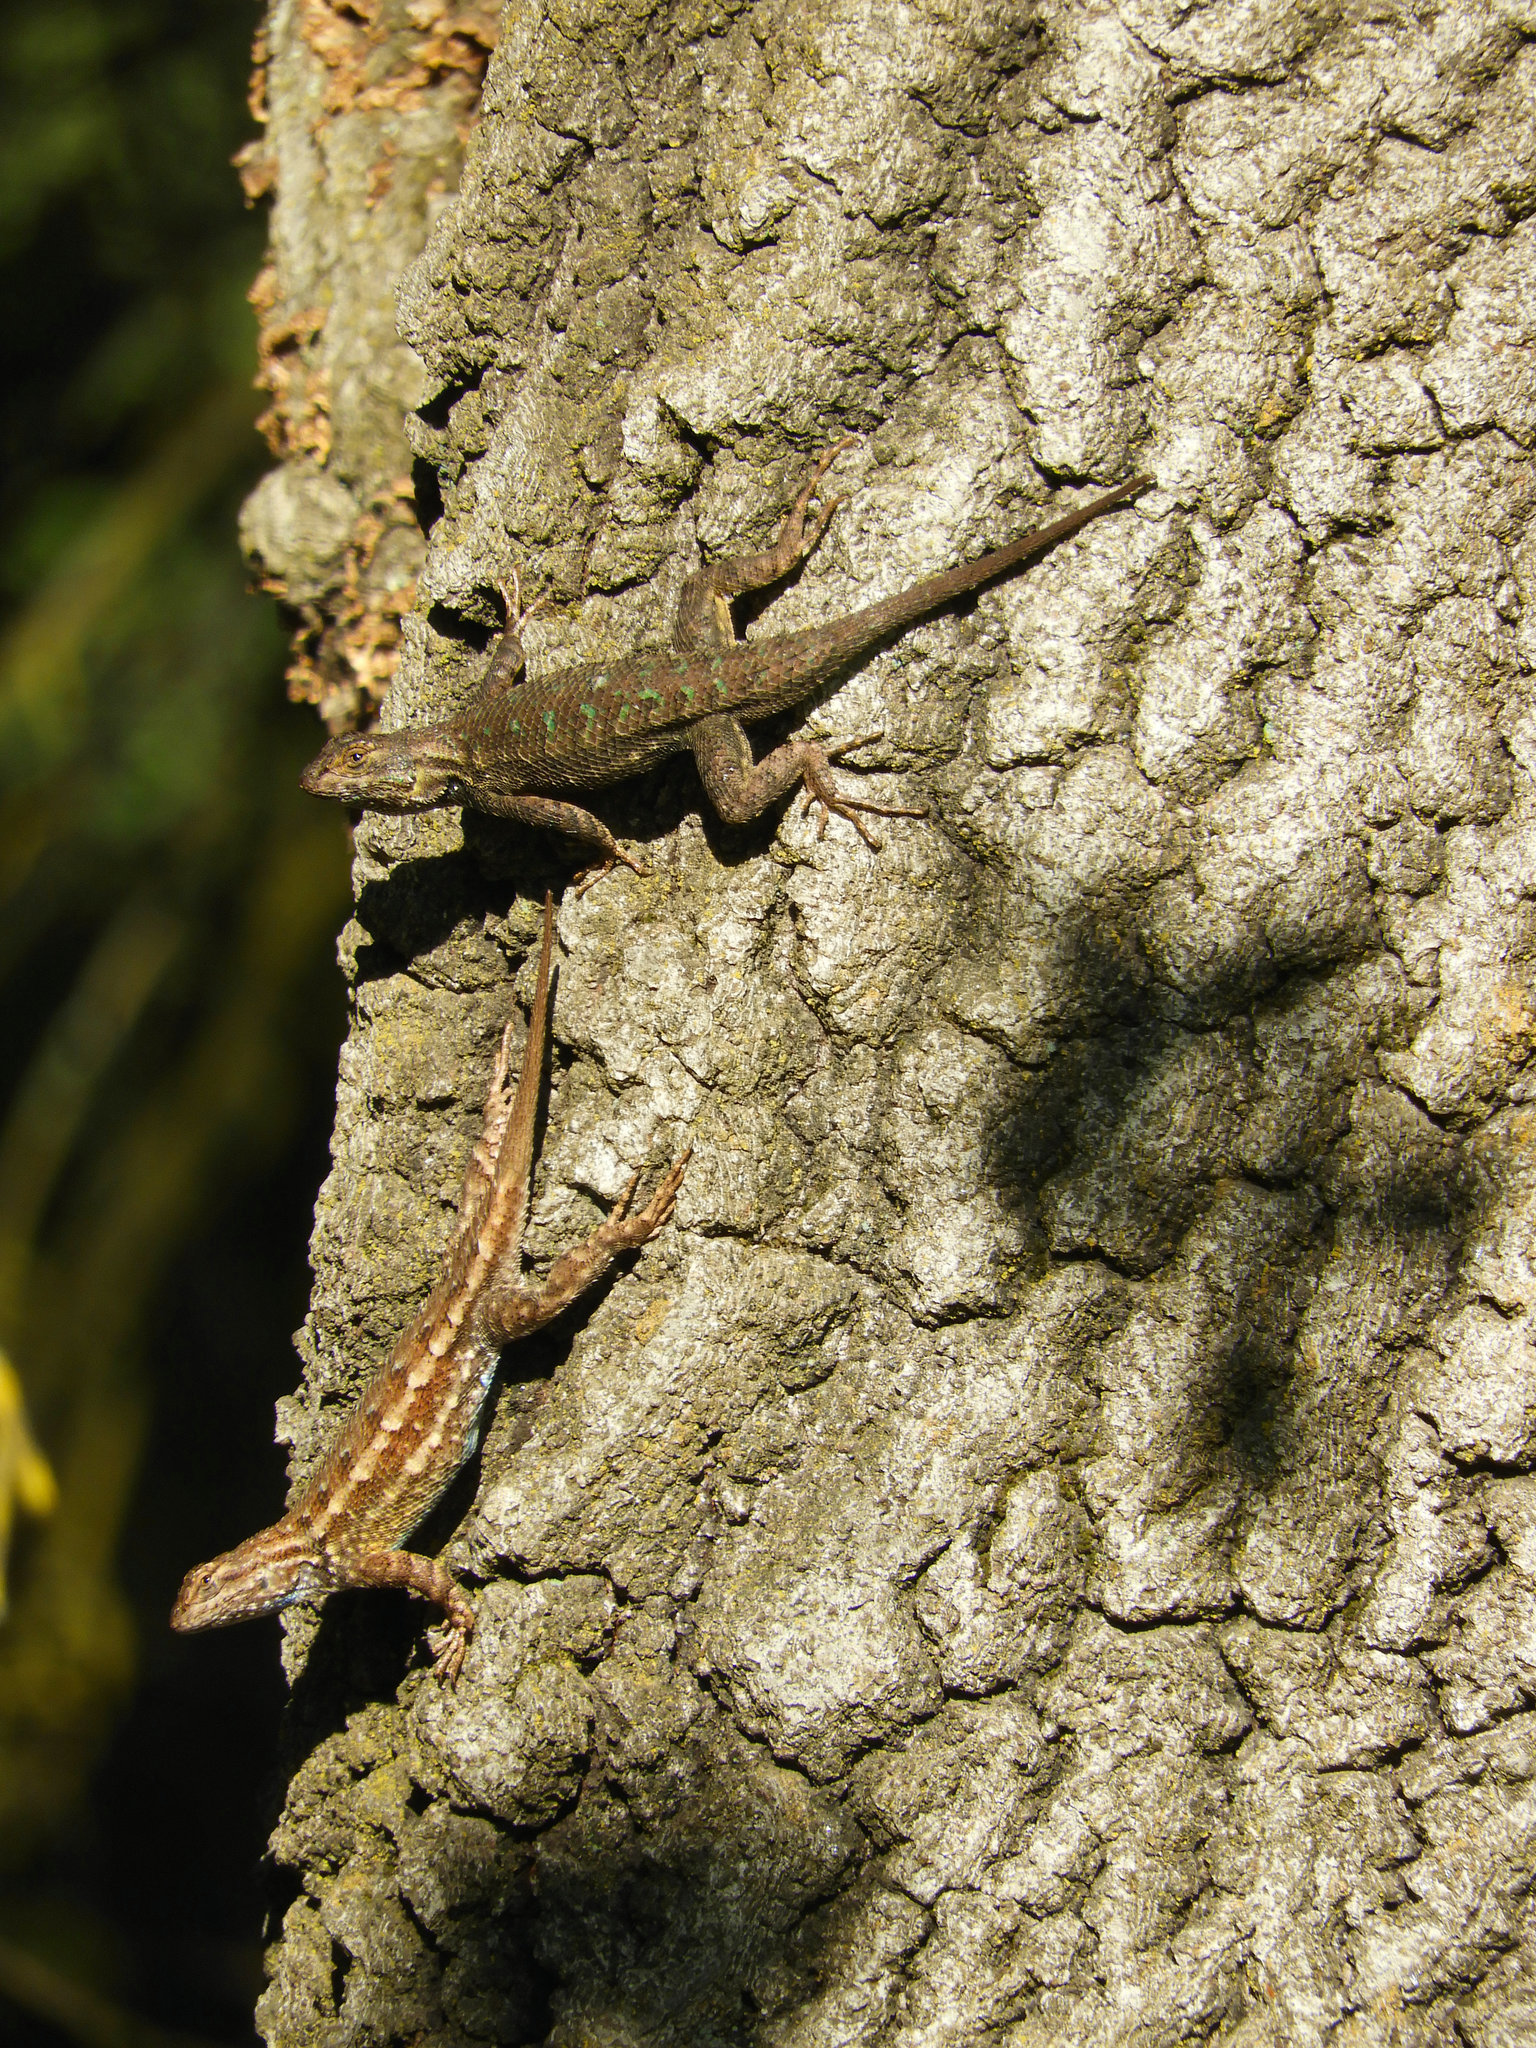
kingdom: Animalia
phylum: Chordata
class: Squamata
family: Phrynosomatidae
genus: Sceloporus
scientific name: Sceloporus occidentalis
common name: Western fence lizard
